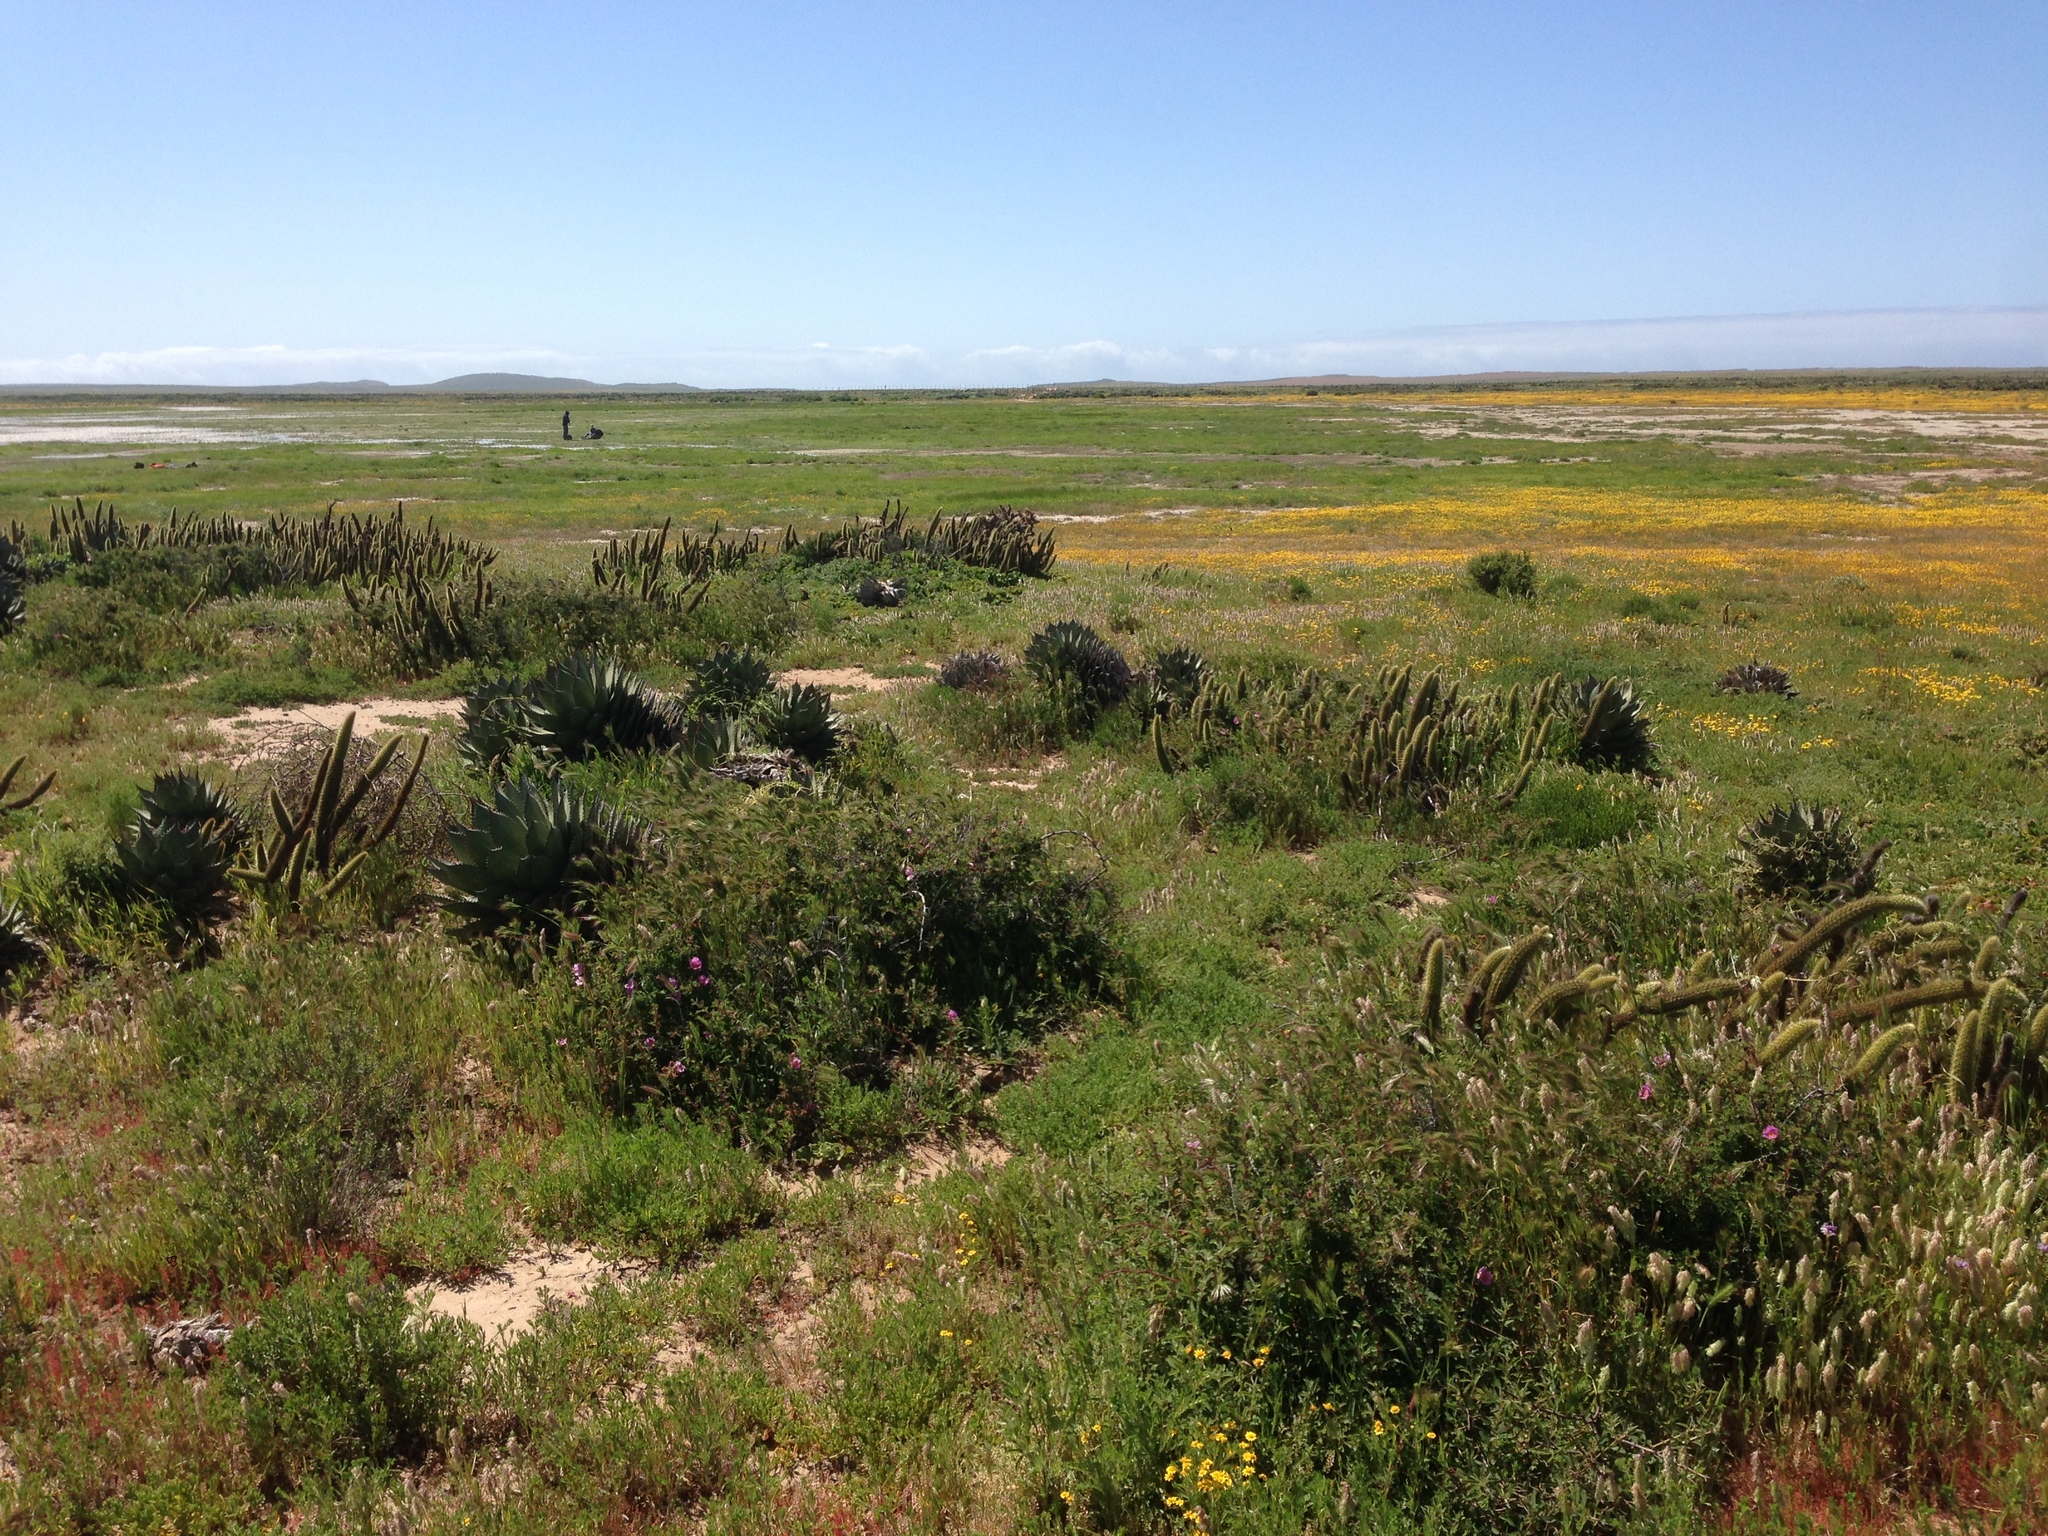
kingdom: Plantae
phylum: Tracheophyta
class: Liliopsida
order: Asparagales
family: Asparagaceae
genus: Agave
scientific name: Agave shawii
